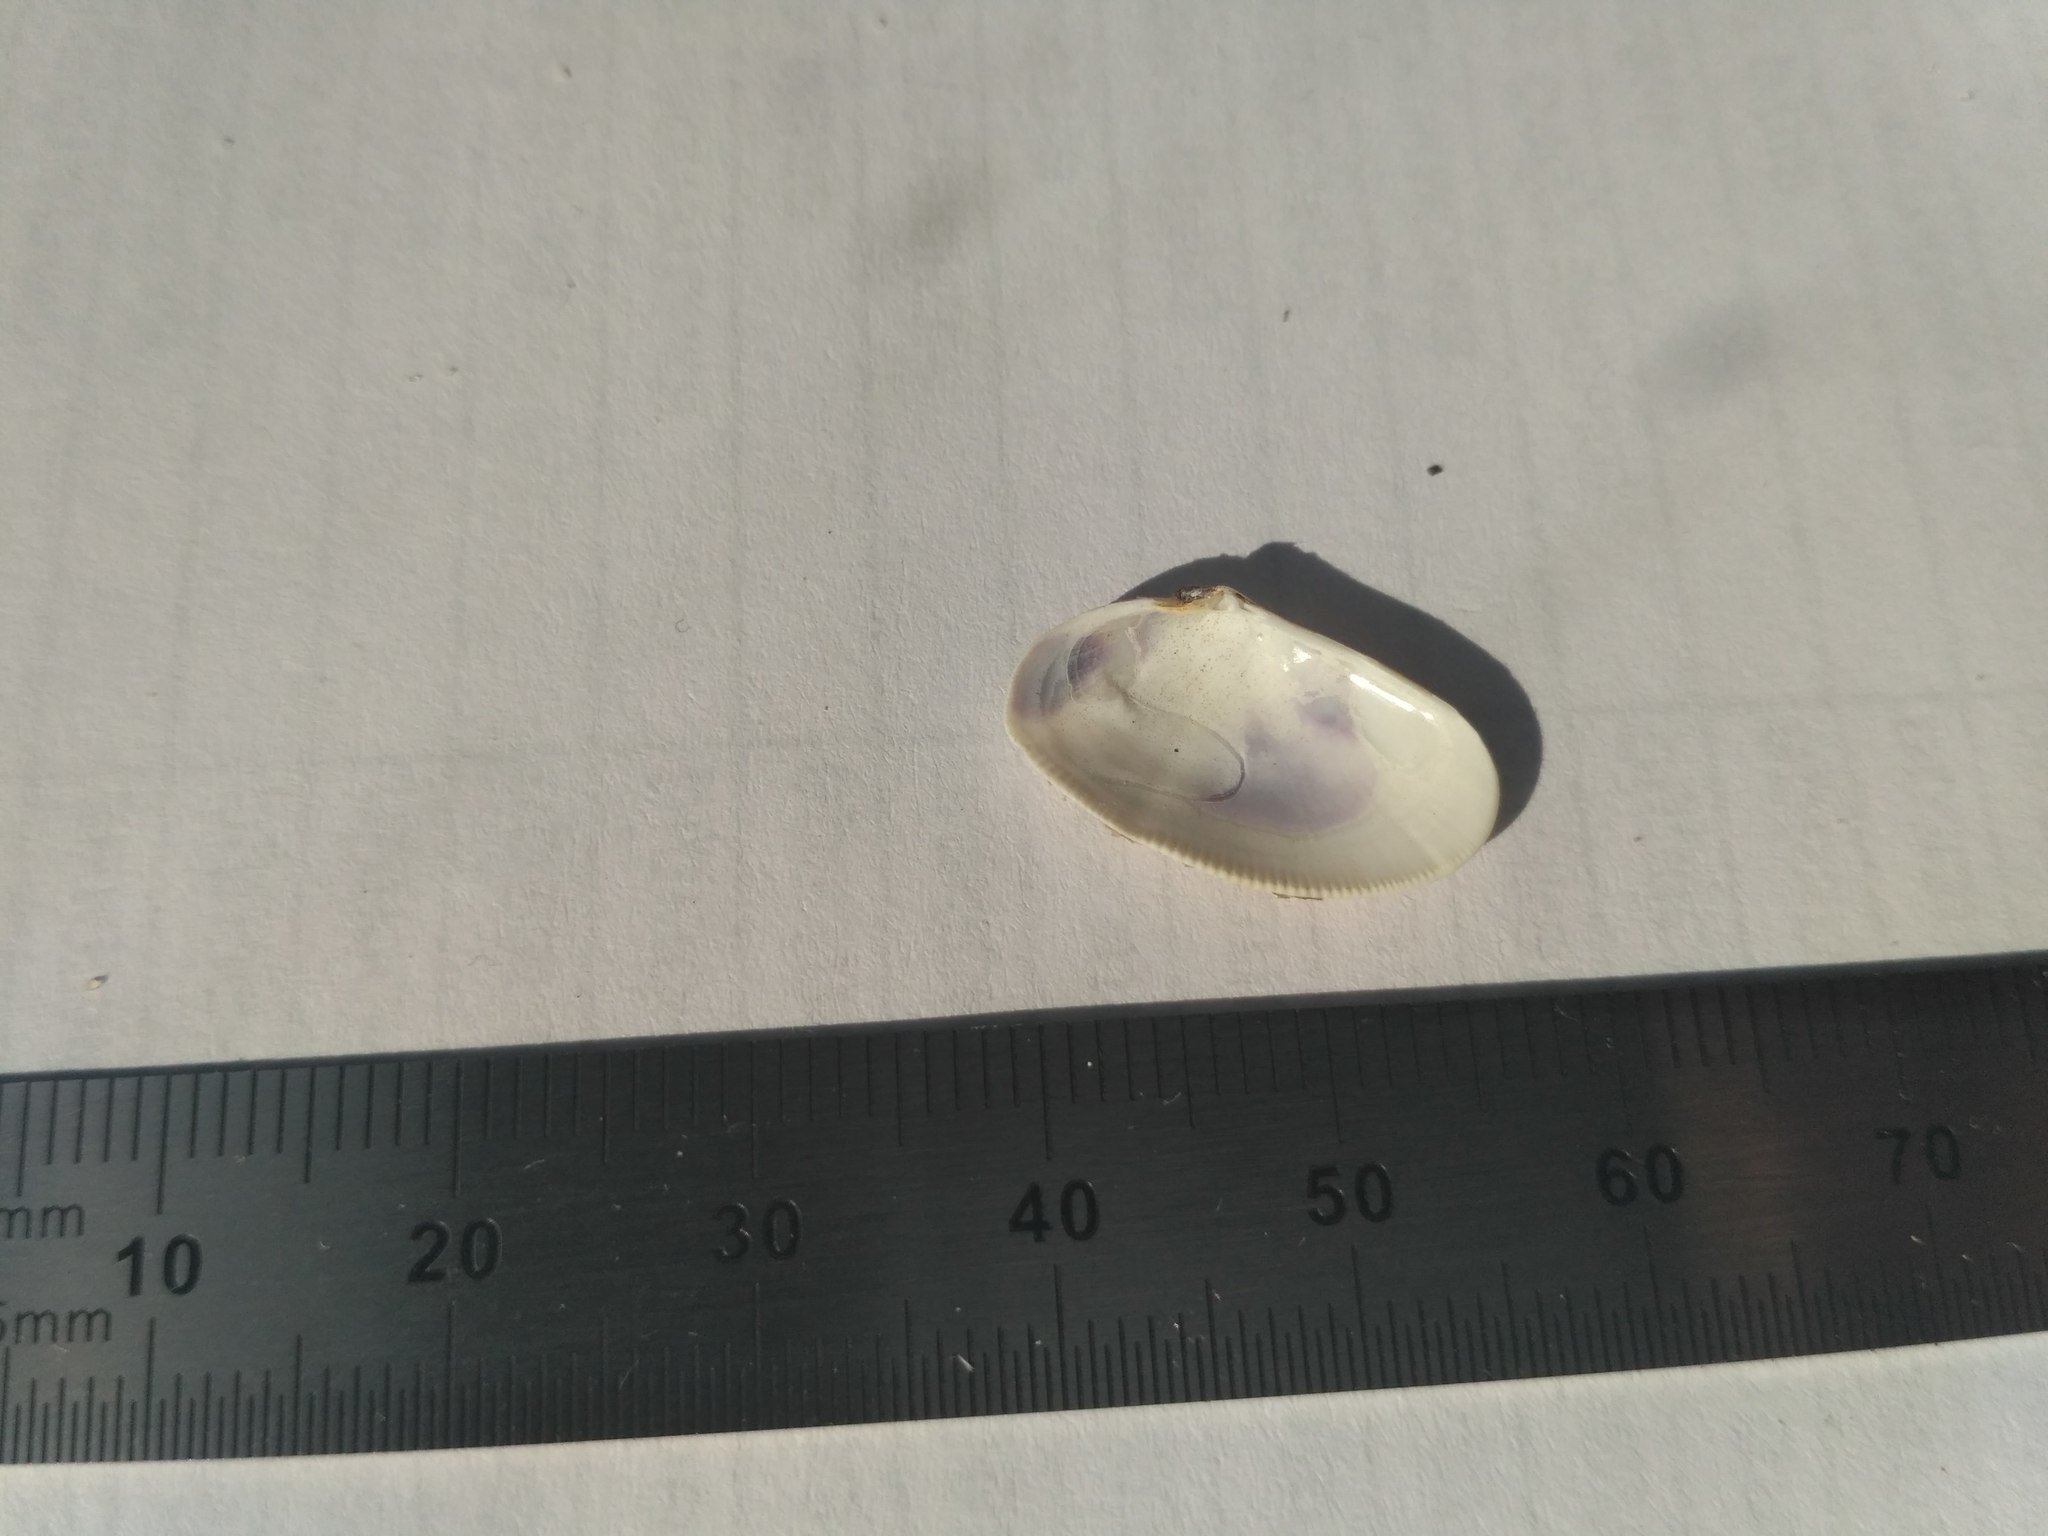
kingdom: Animalia
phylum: Mollusca
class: Bivalvia
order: Cardiida
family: Donacidae
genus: Donax
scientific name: Donax trunculus
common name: Truncate donax
